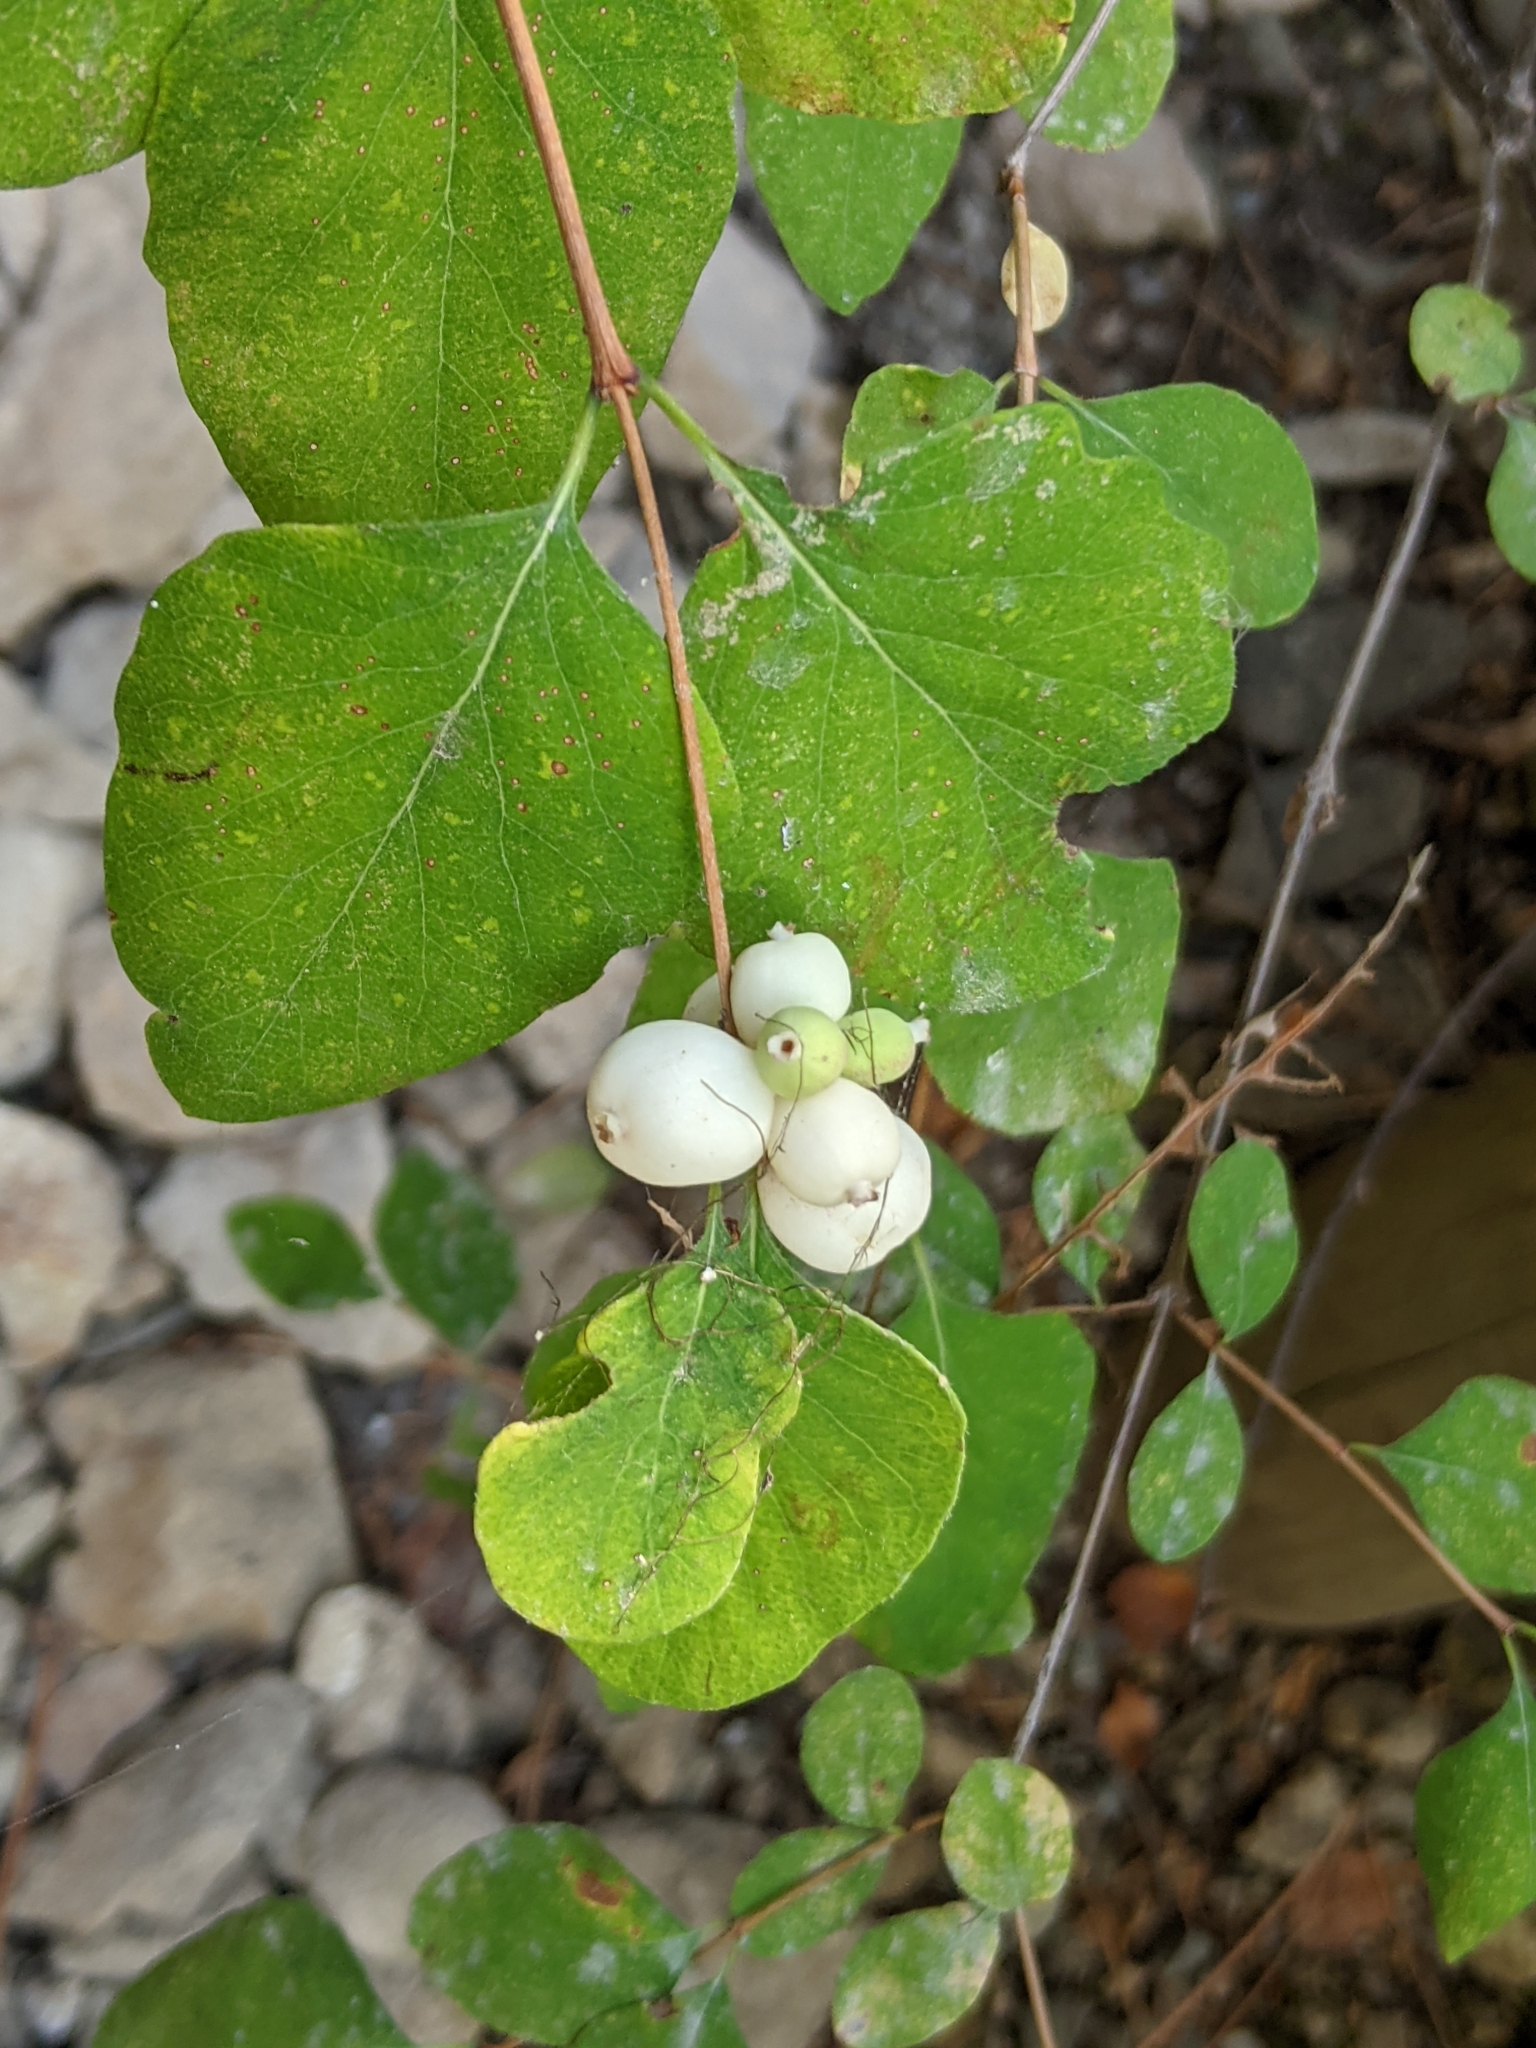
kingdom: Plantae
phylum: Tracheophyta
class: Magnoliopsida
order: Dipsacales
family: Caprifoliaceae
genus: Symphoricarpos
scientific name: Symphoricarpos albus
